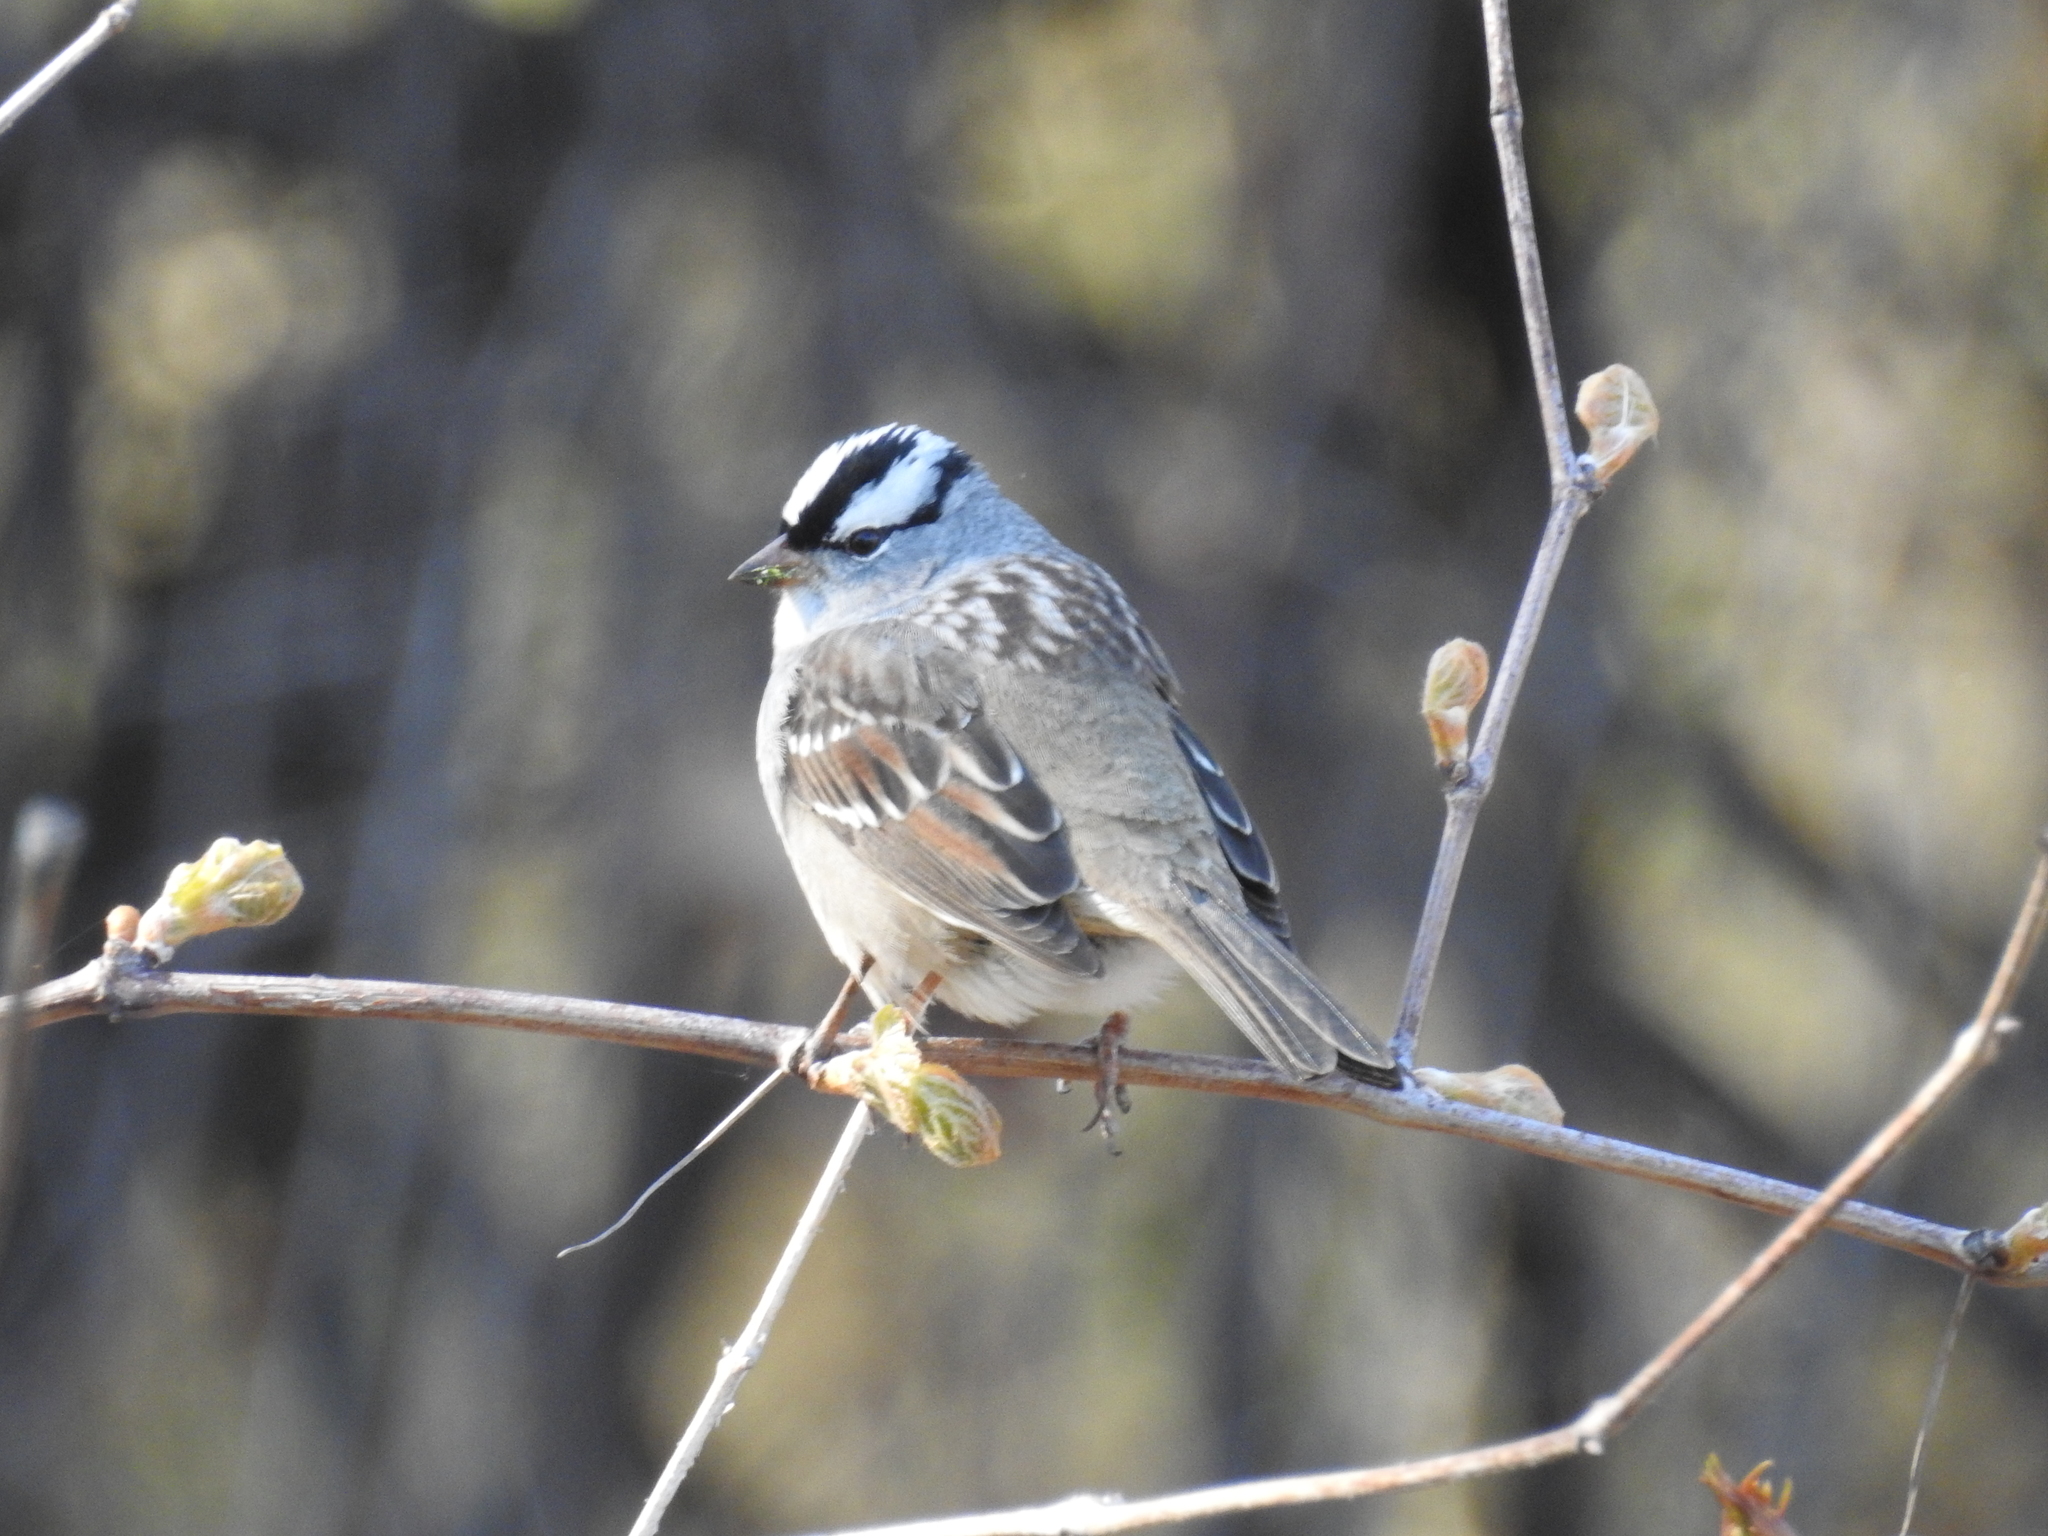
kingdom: Animalia
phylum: Chordata
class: Aves
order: Passeriformes
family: Passerellidae
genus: Zonotrichia
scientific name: Zonotrichia leucophrys
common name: White-crowned sparrow
